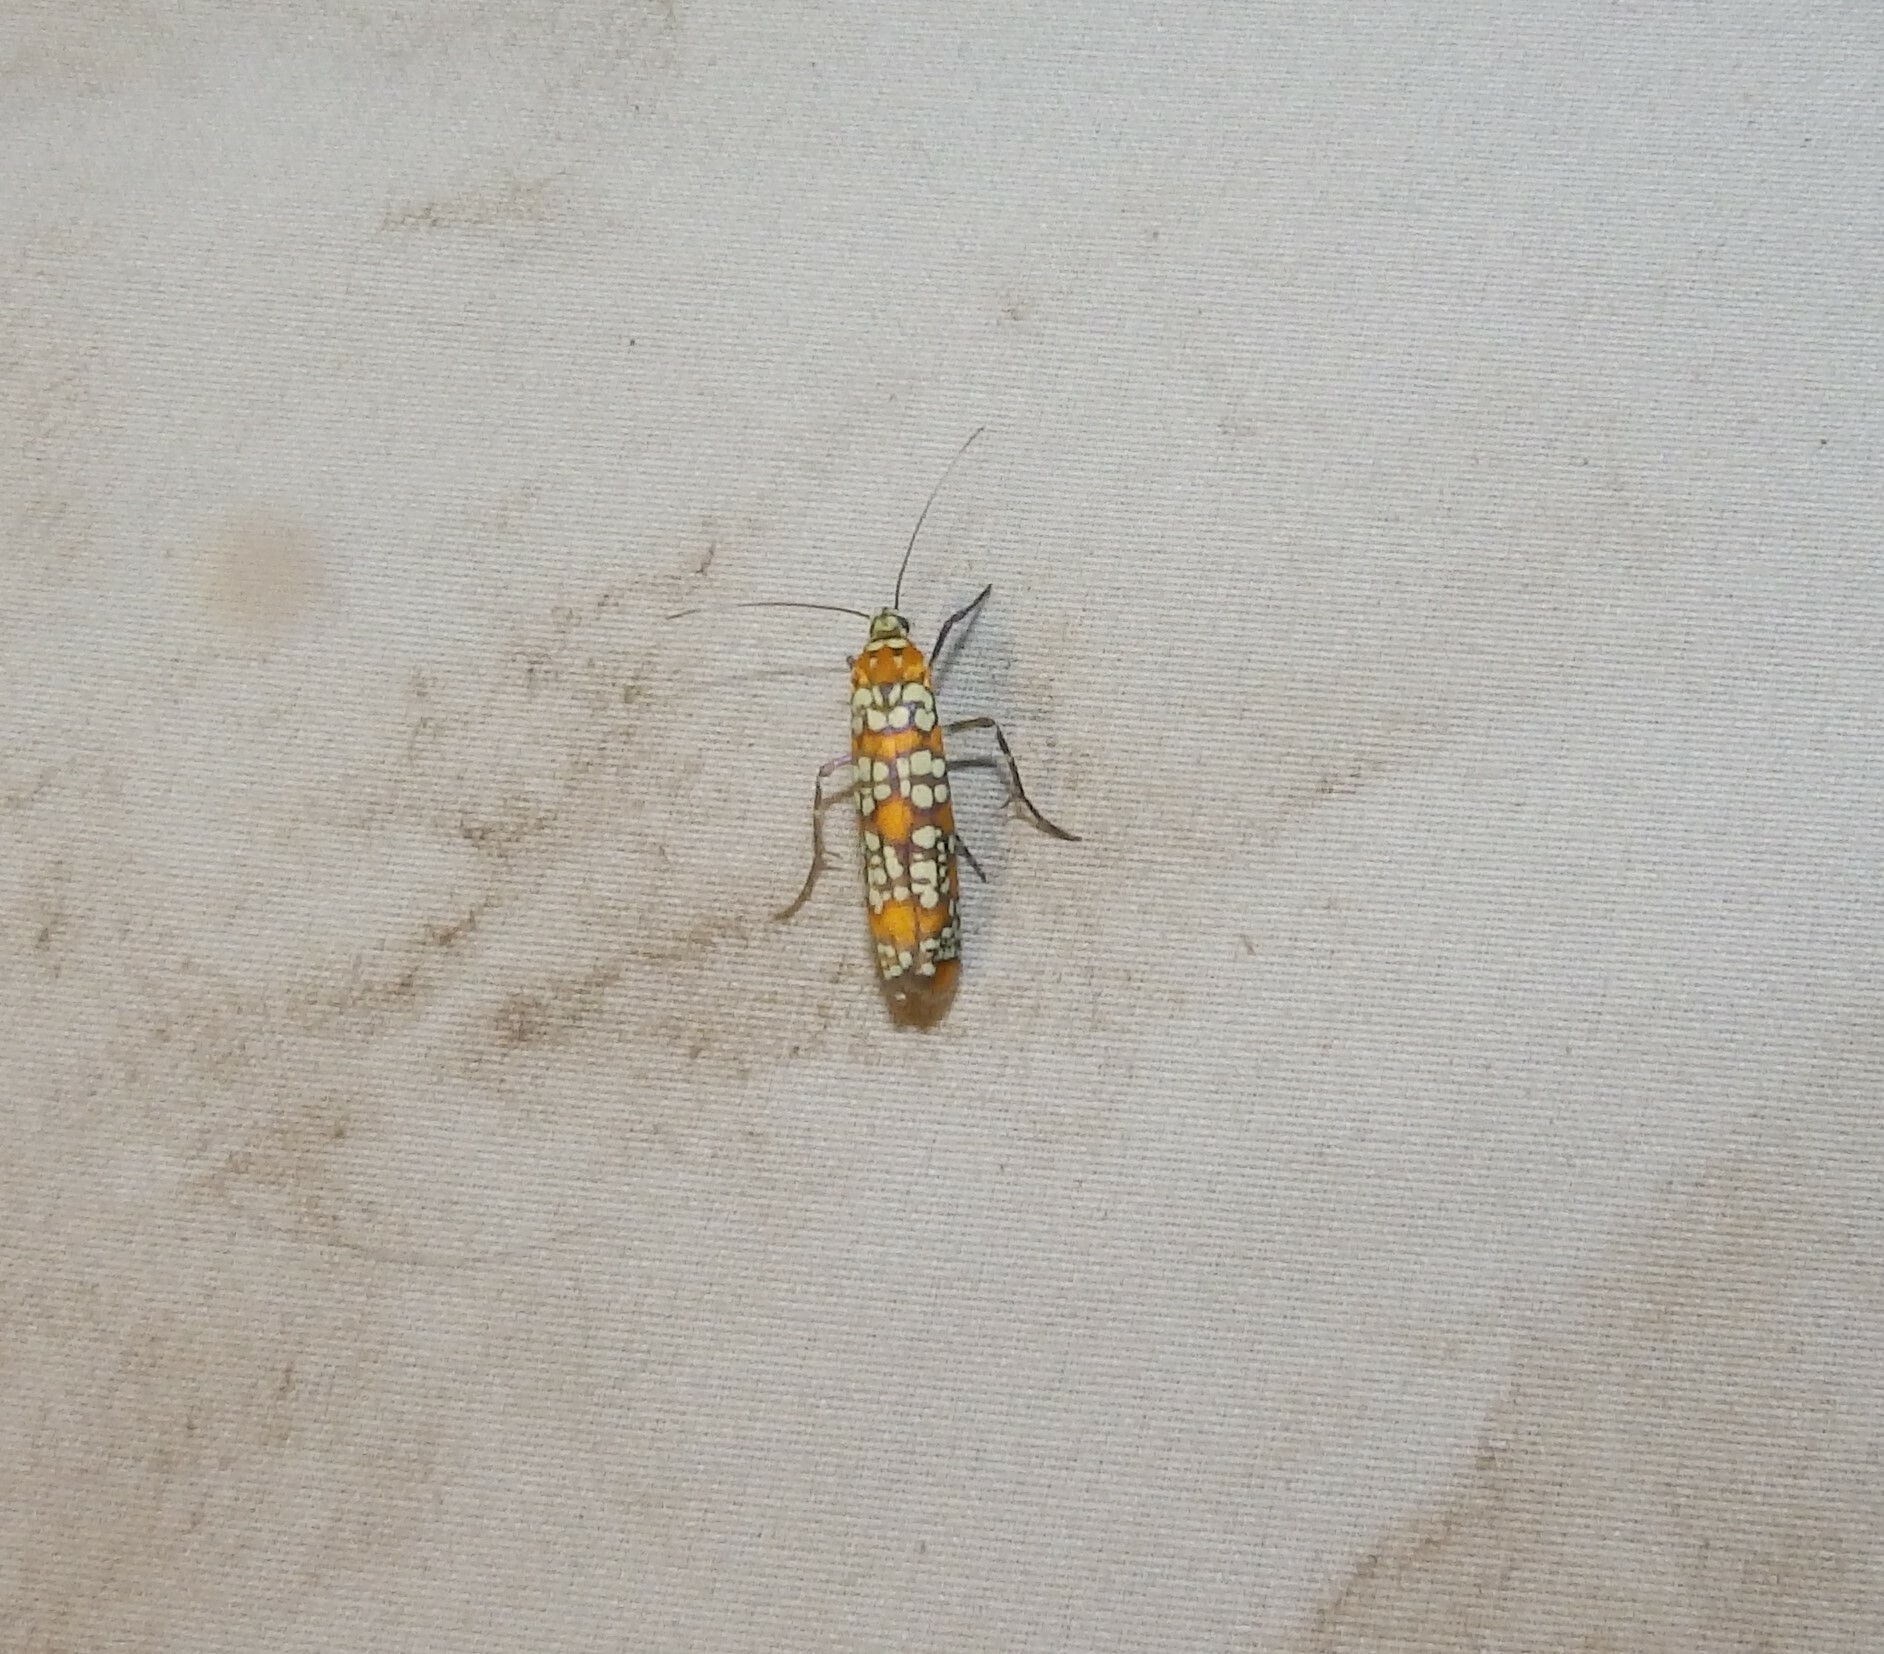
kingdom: Animalia
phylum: Arthropoda
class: Insecta
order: Lepidoptera
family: Attevidae
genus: Atteva
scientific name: Atteva punctella
